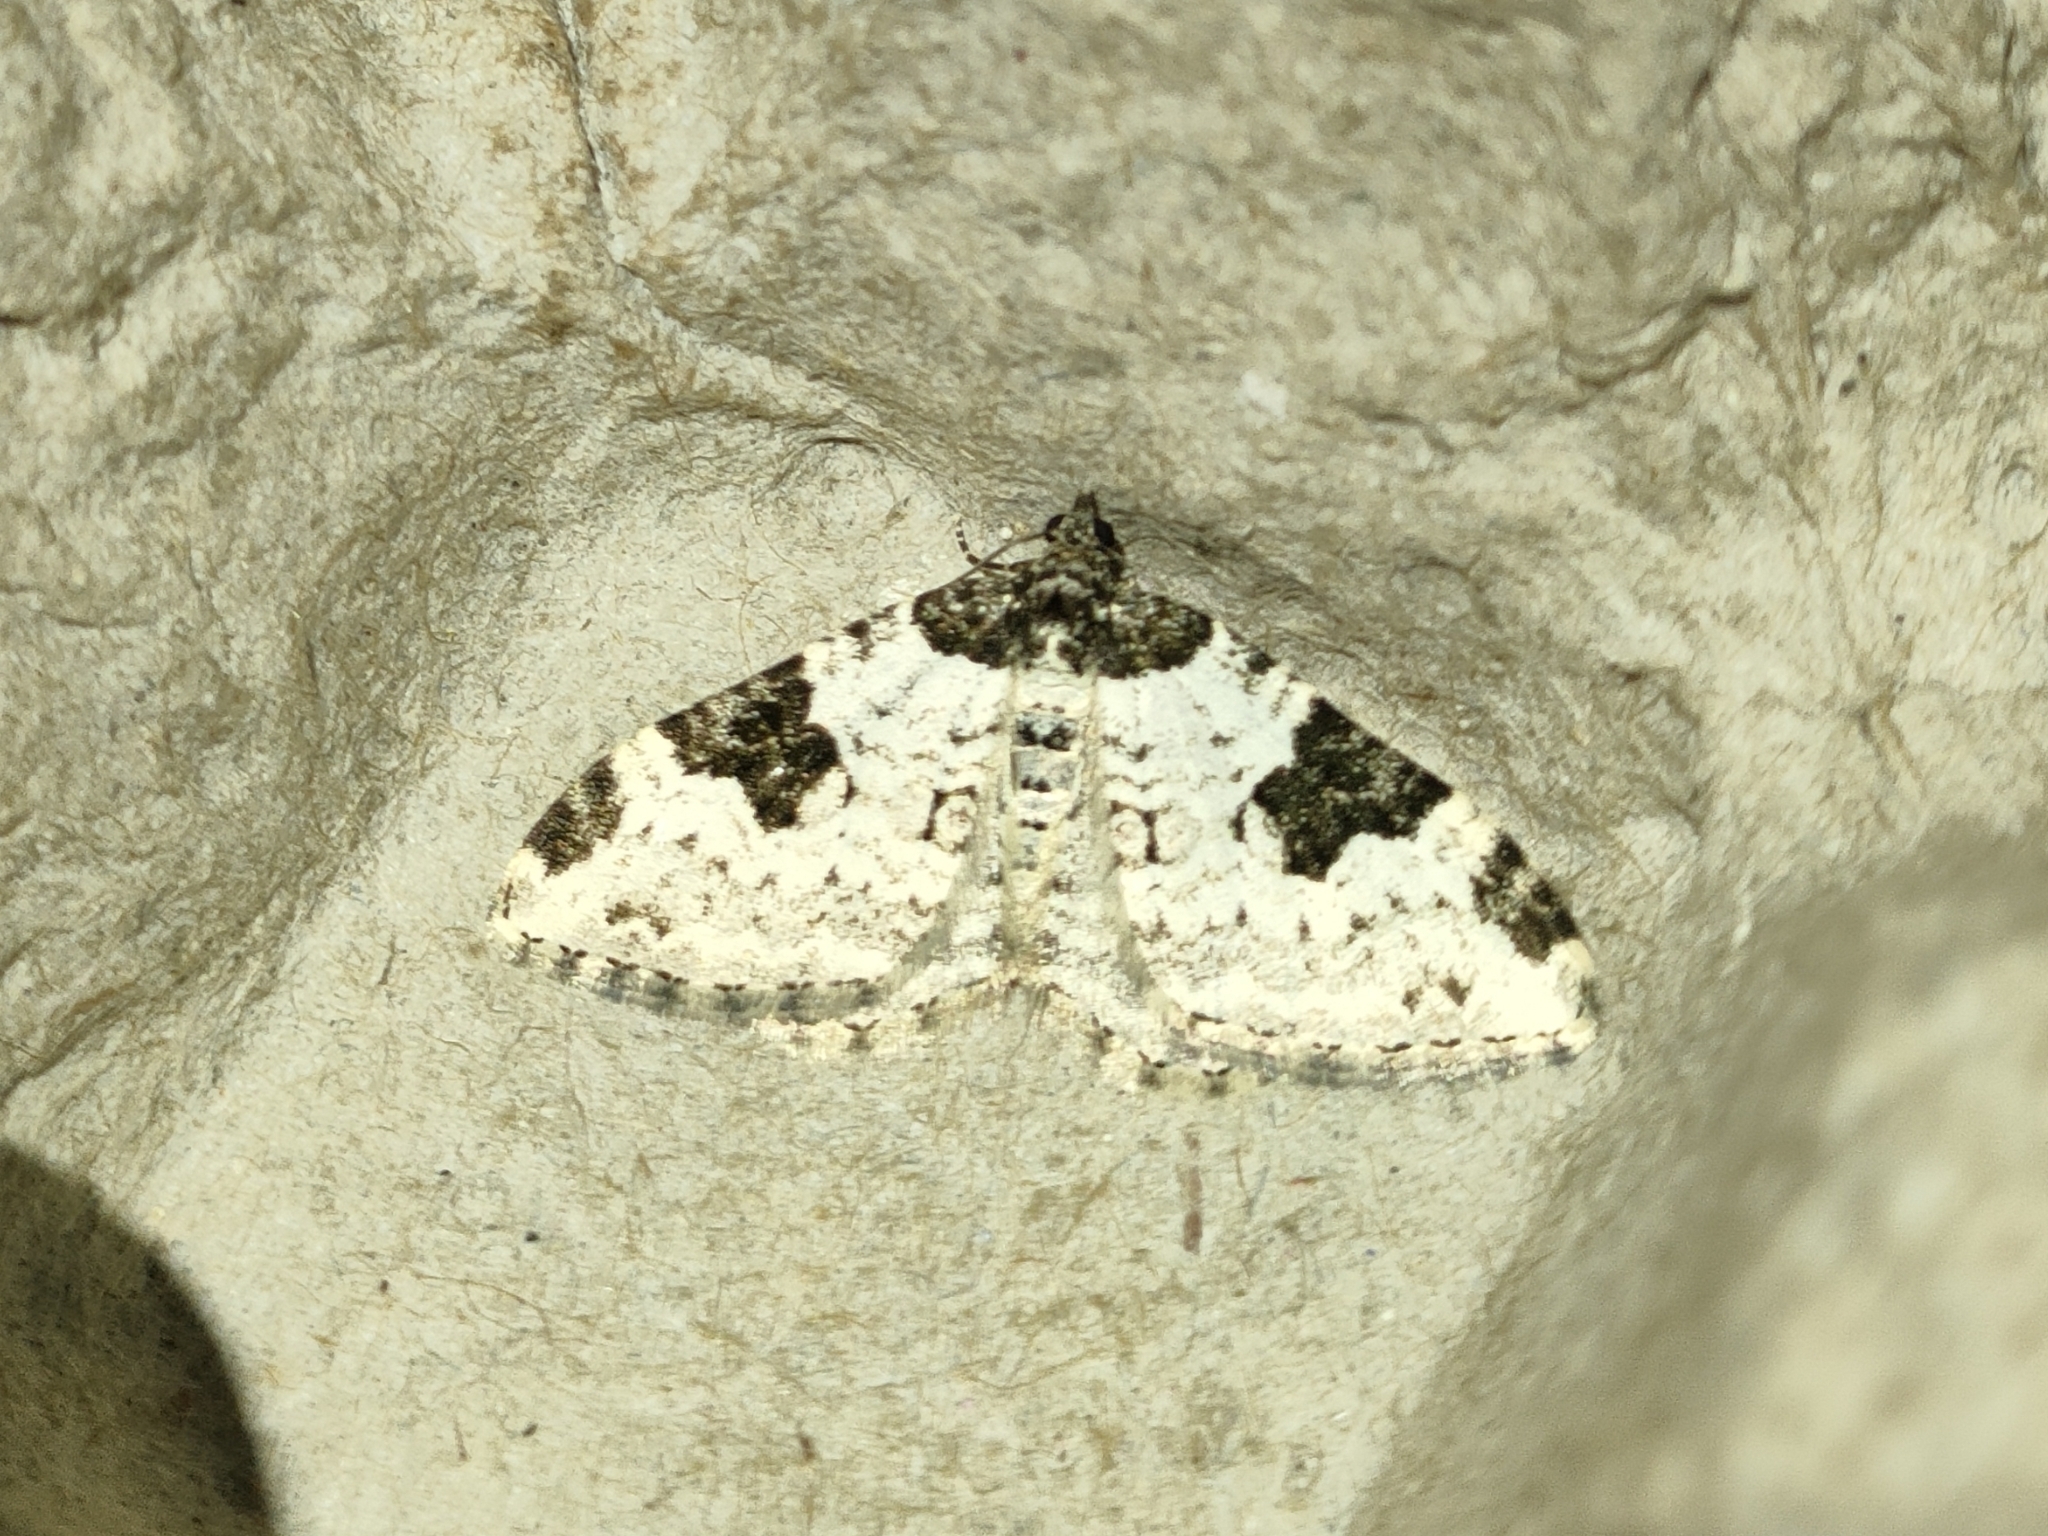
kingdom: Animalia
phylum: Arthropoda
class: Insecta
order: Lepidoptera
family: Geometridae
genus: Xanthorhoe
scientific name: Xanthorhoe fluctuata
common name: Garden carpet
